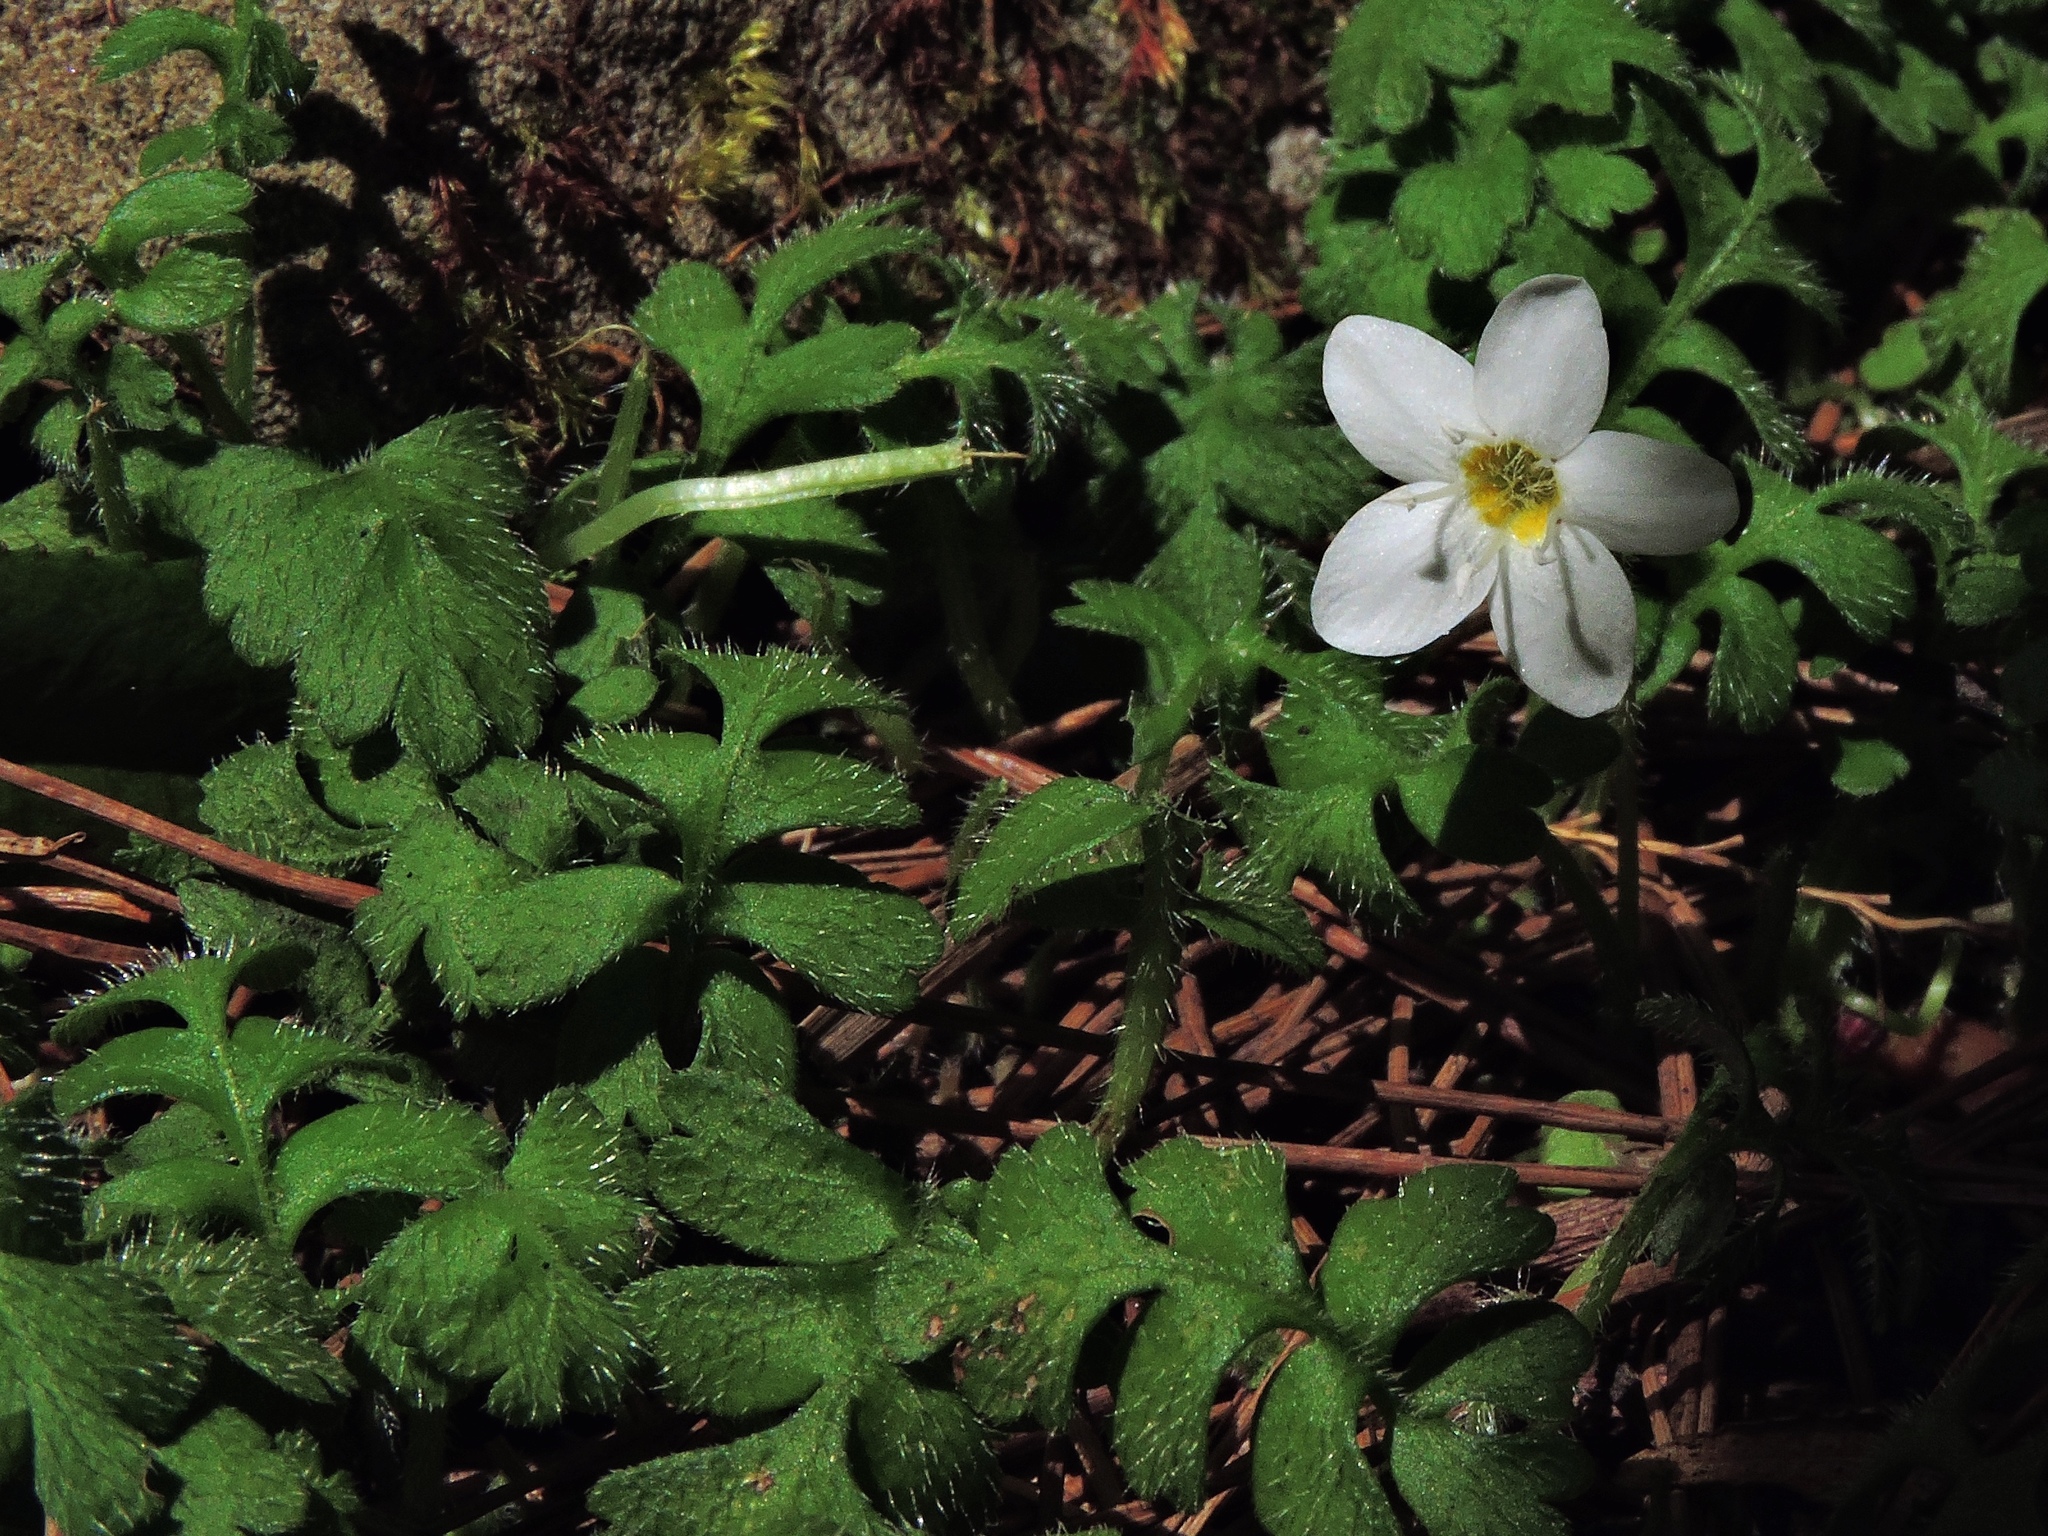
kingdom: Plantae
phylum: Tracheophyta
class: Magnoliopsida
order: Lamiales
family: Plantaginaceae
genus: Ellisiophyllum
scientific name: Ellisiophyllum pinnatum
